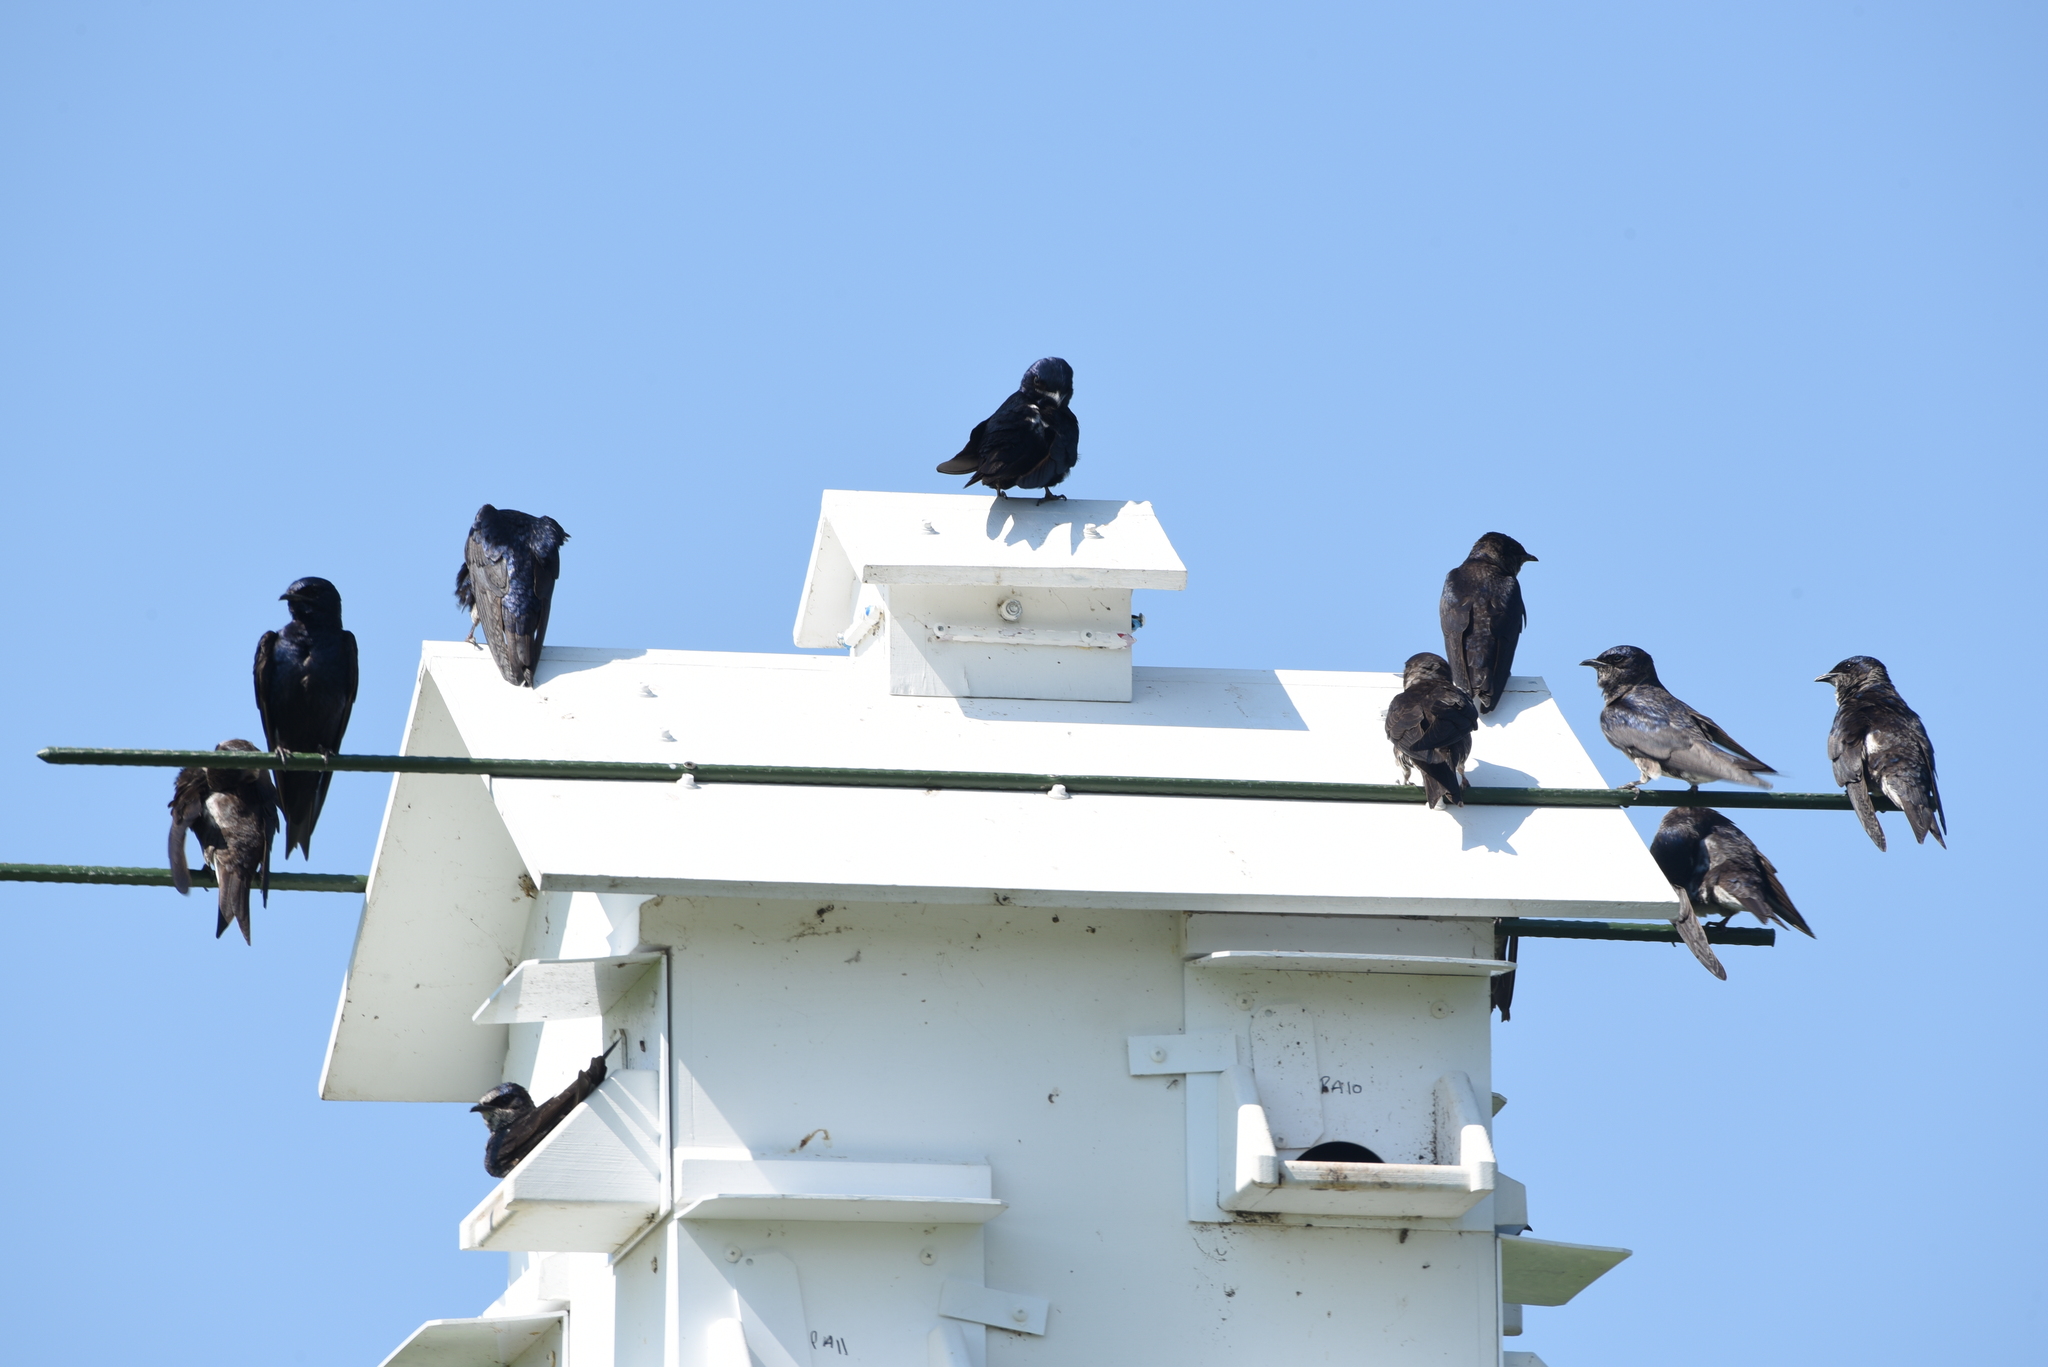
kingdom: Animalia
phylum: Chordata
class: Aves
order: Passeriformes
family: Hirundinidae
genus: Progne
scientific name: Progne subis
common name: Purple martin
